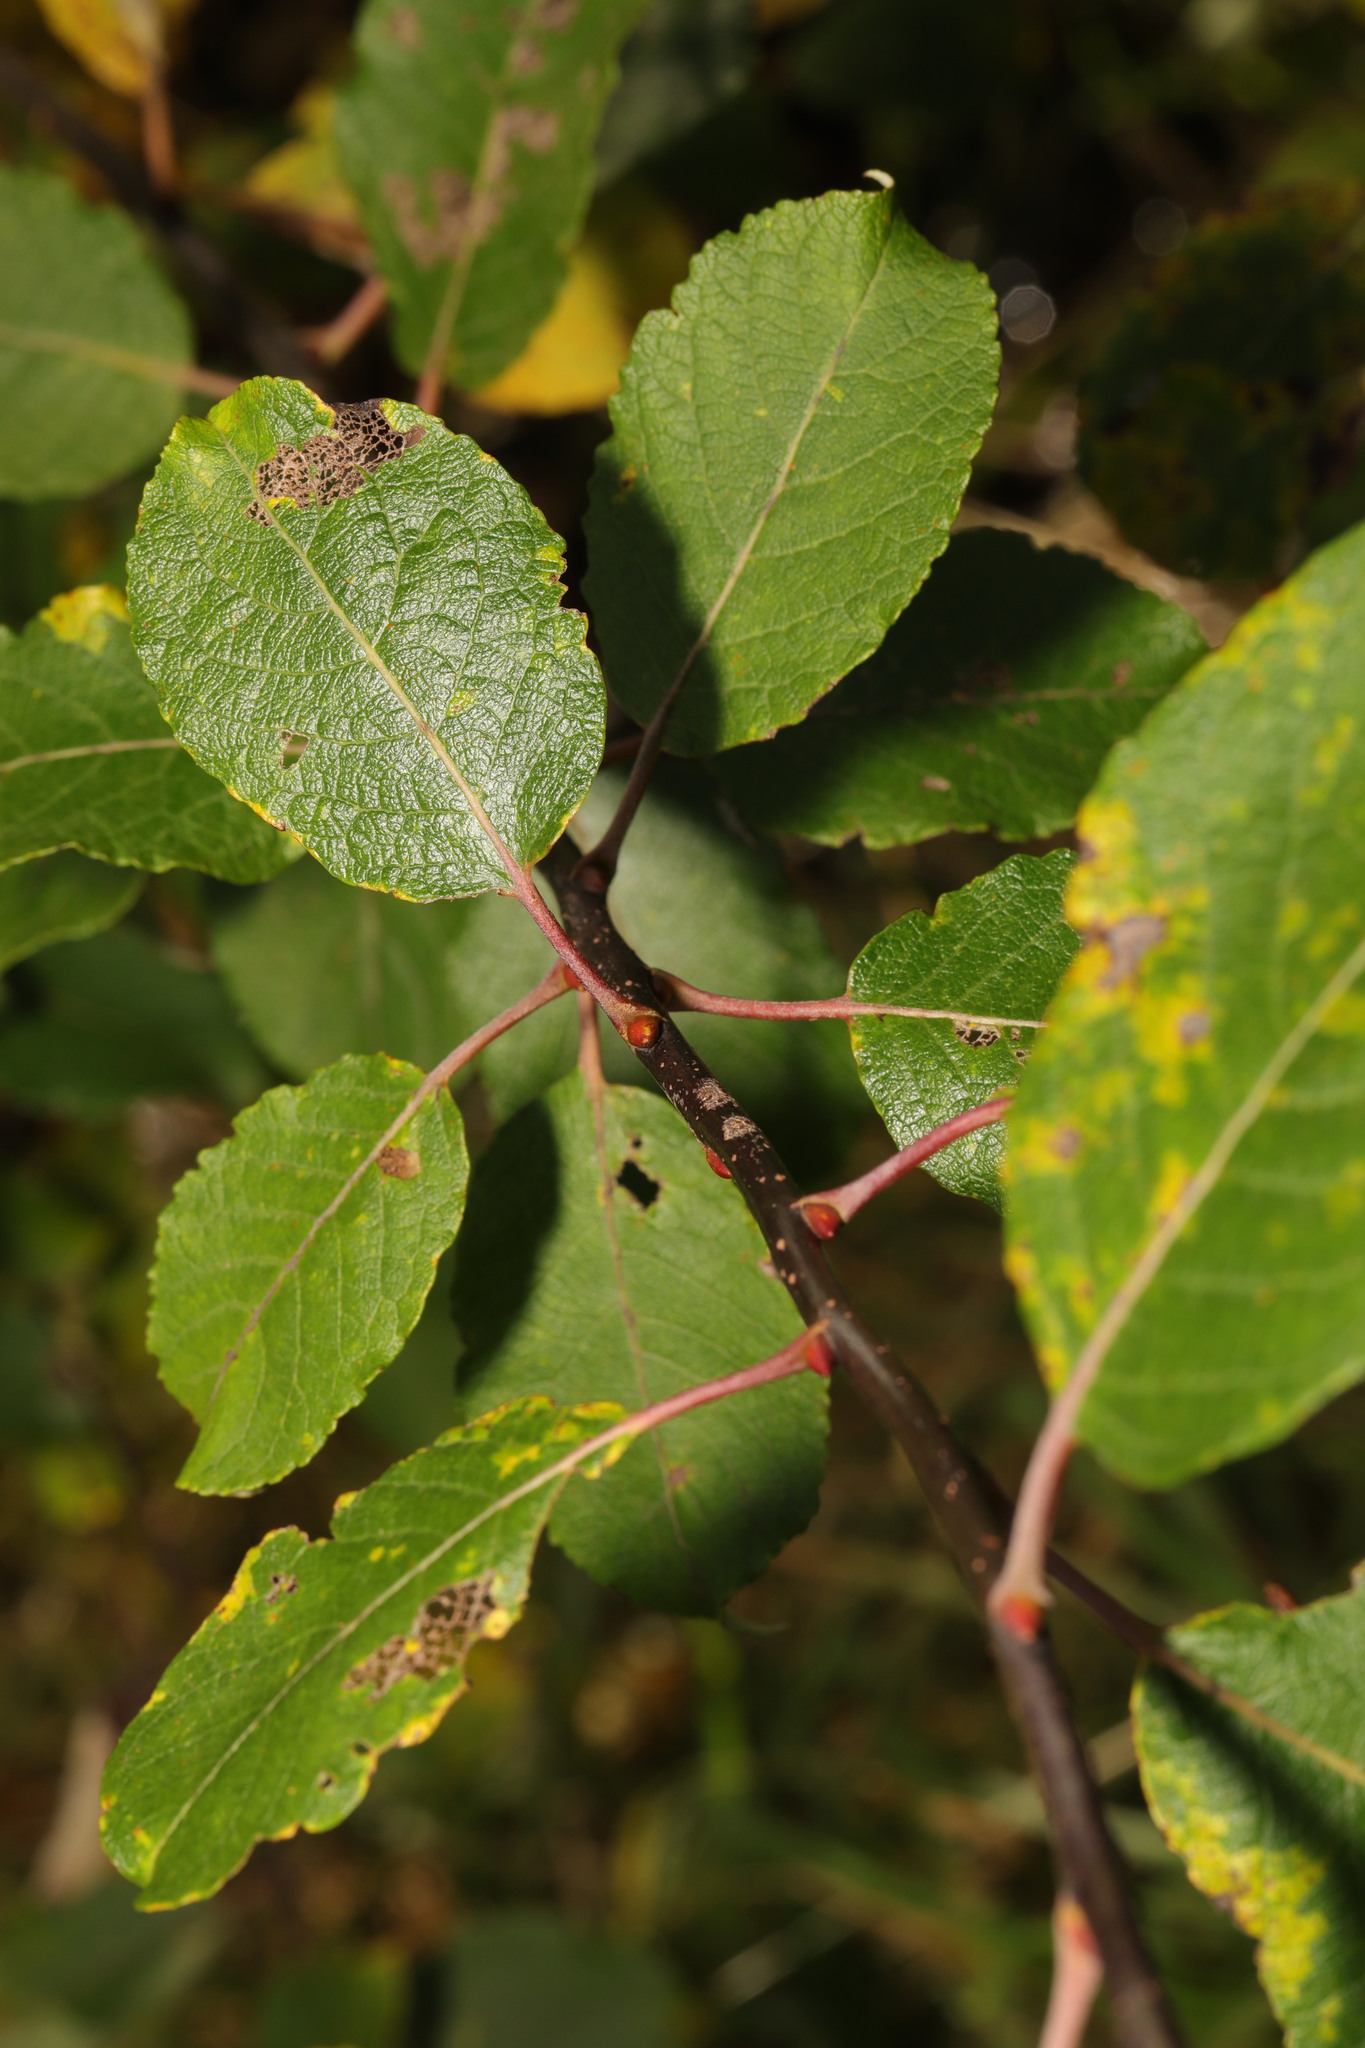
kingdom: Plantae
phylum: Tracheophyta
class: Magnoliopsida
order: Malpighiales
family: Salicaceae
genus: Salix
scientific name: Salix caprea
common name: Goat willow
